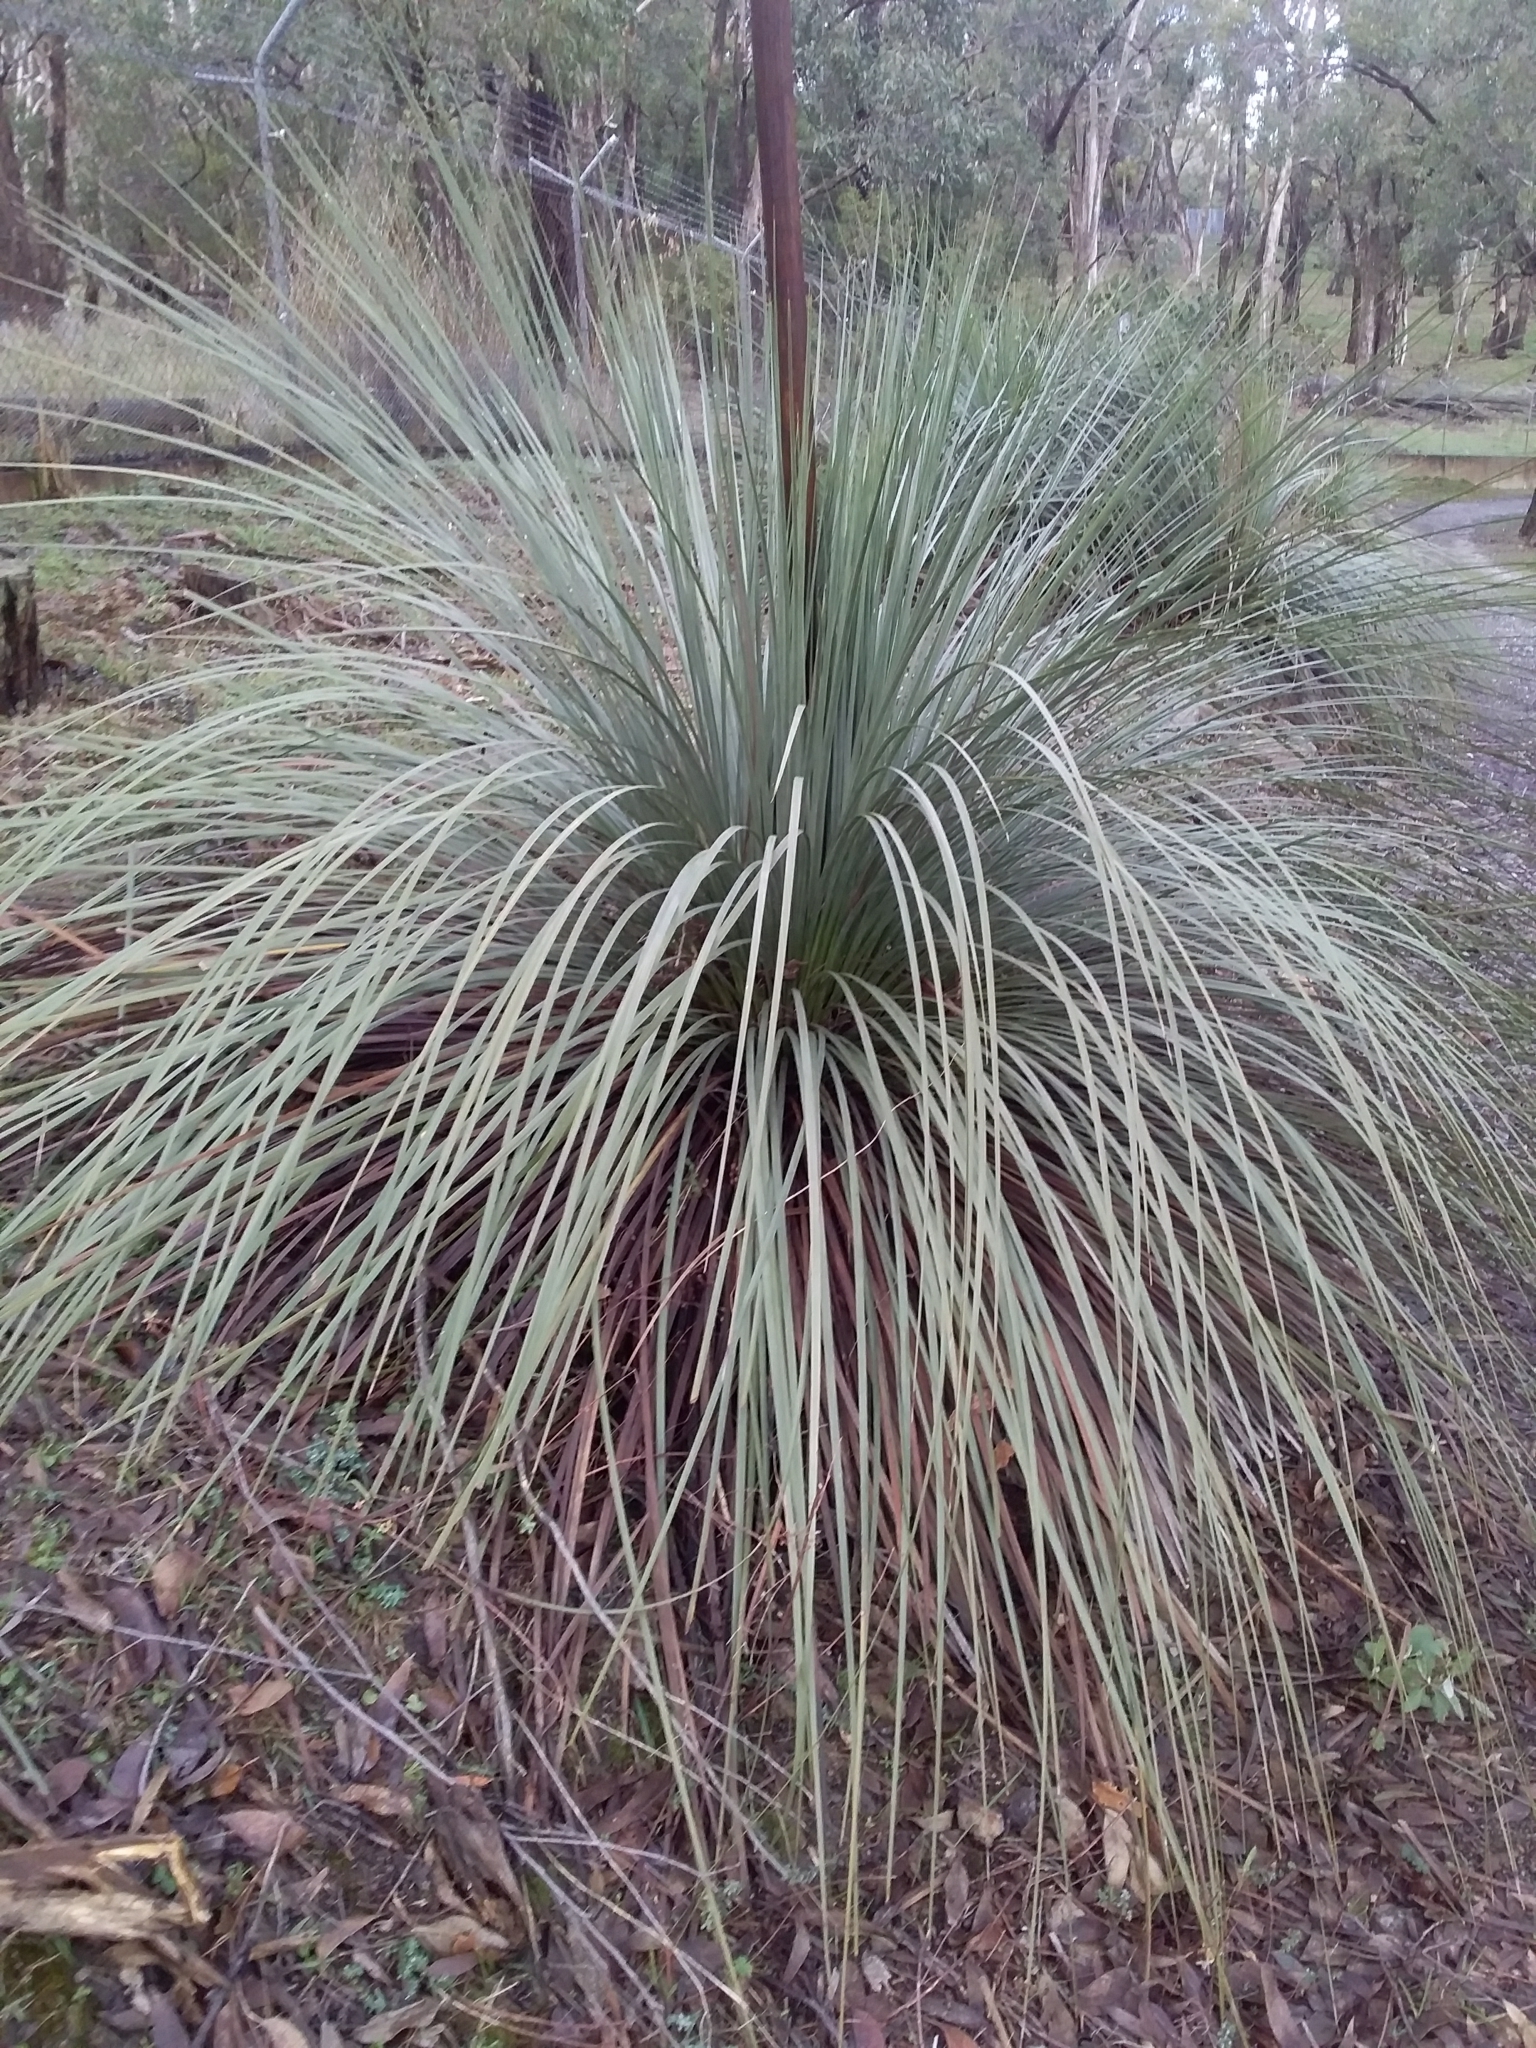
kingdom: Plantae
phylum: Tracheophyta
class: Liliopsida
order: Asparagales
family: Asphodelaceae
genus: Xanthorrhoea
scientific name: Xanthorrhoea semiplana
